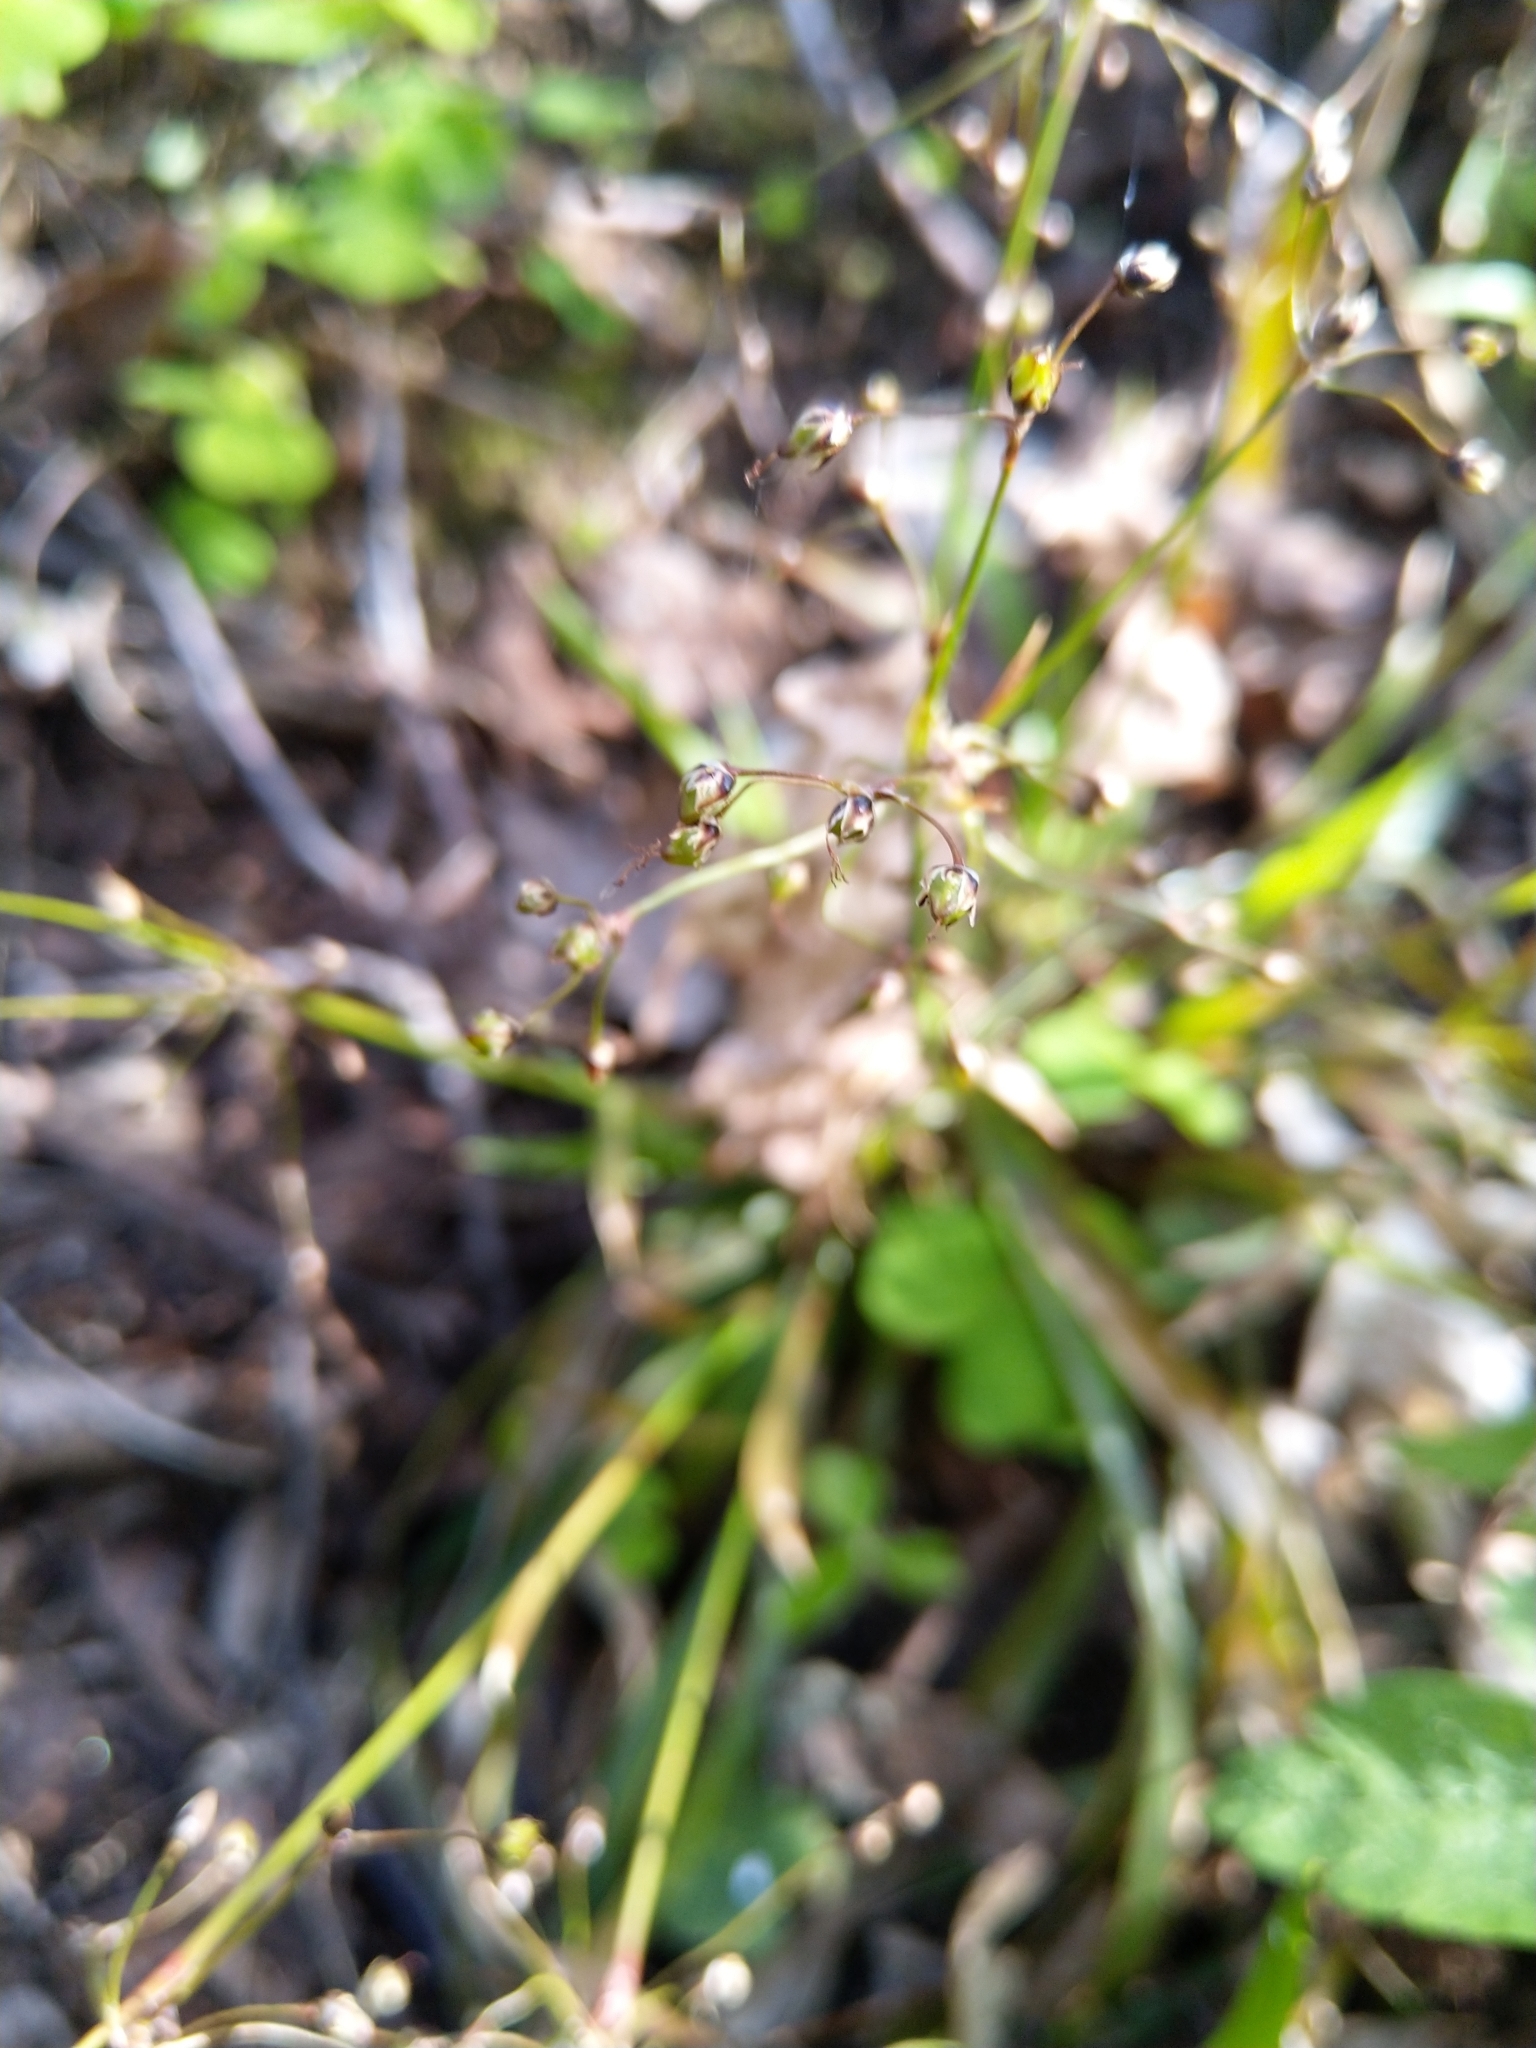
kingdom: Plantae
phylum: Tracheophyta
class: Liliopsida
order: Poales
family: Juncaceae
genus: Luzula
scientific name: Luzula pilosa
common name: Hairy wood-rush
